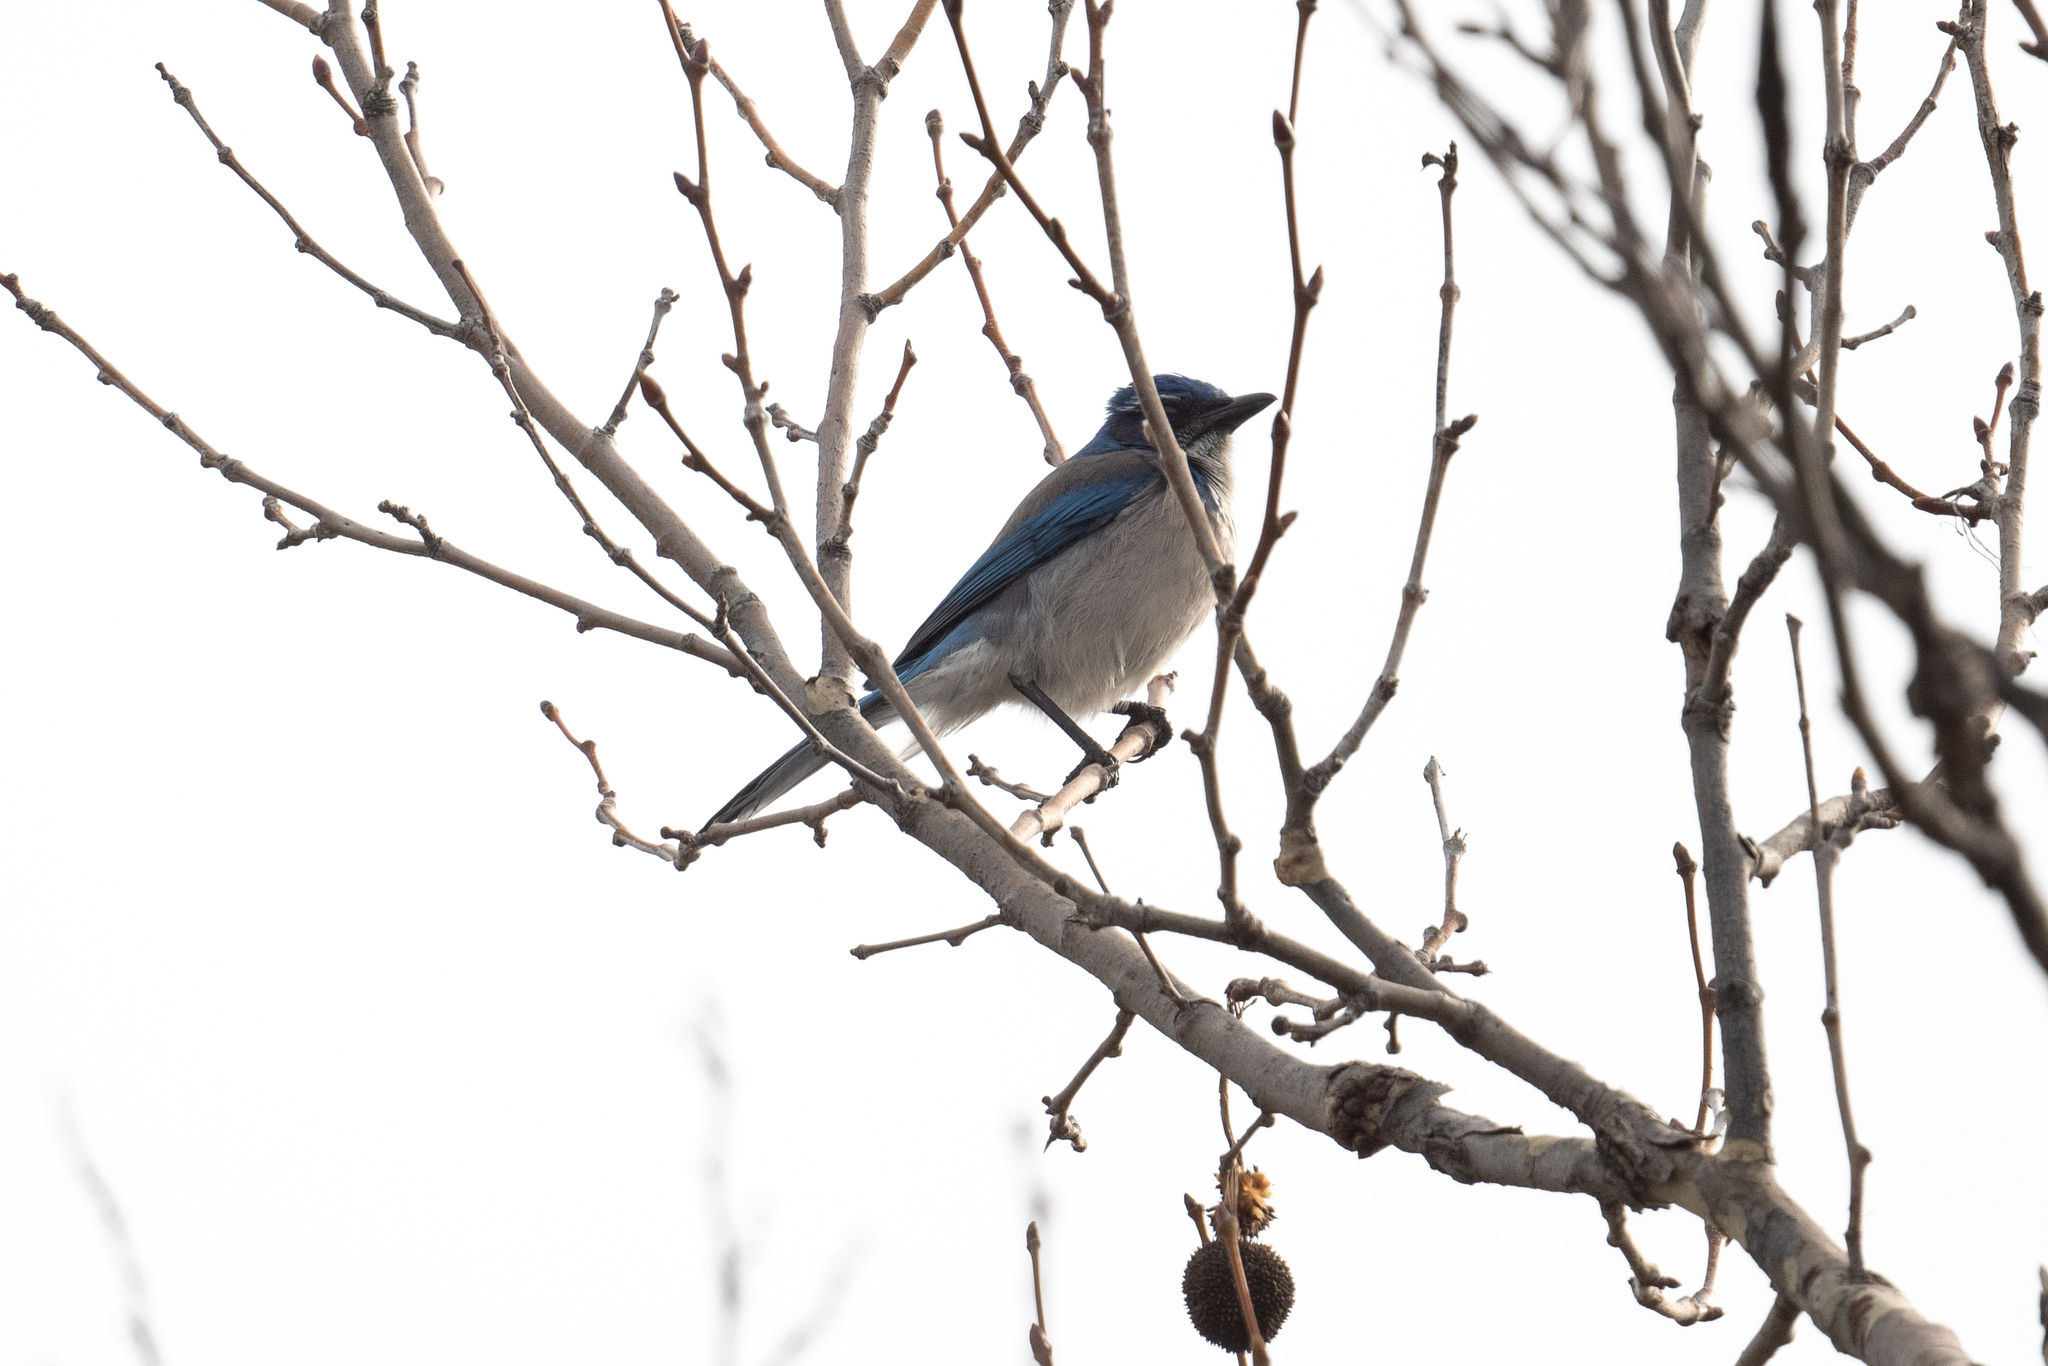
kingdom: Animalia
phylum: Chordata
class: Aves
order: Passeriformes
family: Corvidae
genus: Aphelocoma
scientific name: Aphelocoma californica
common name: California scrub-jay
